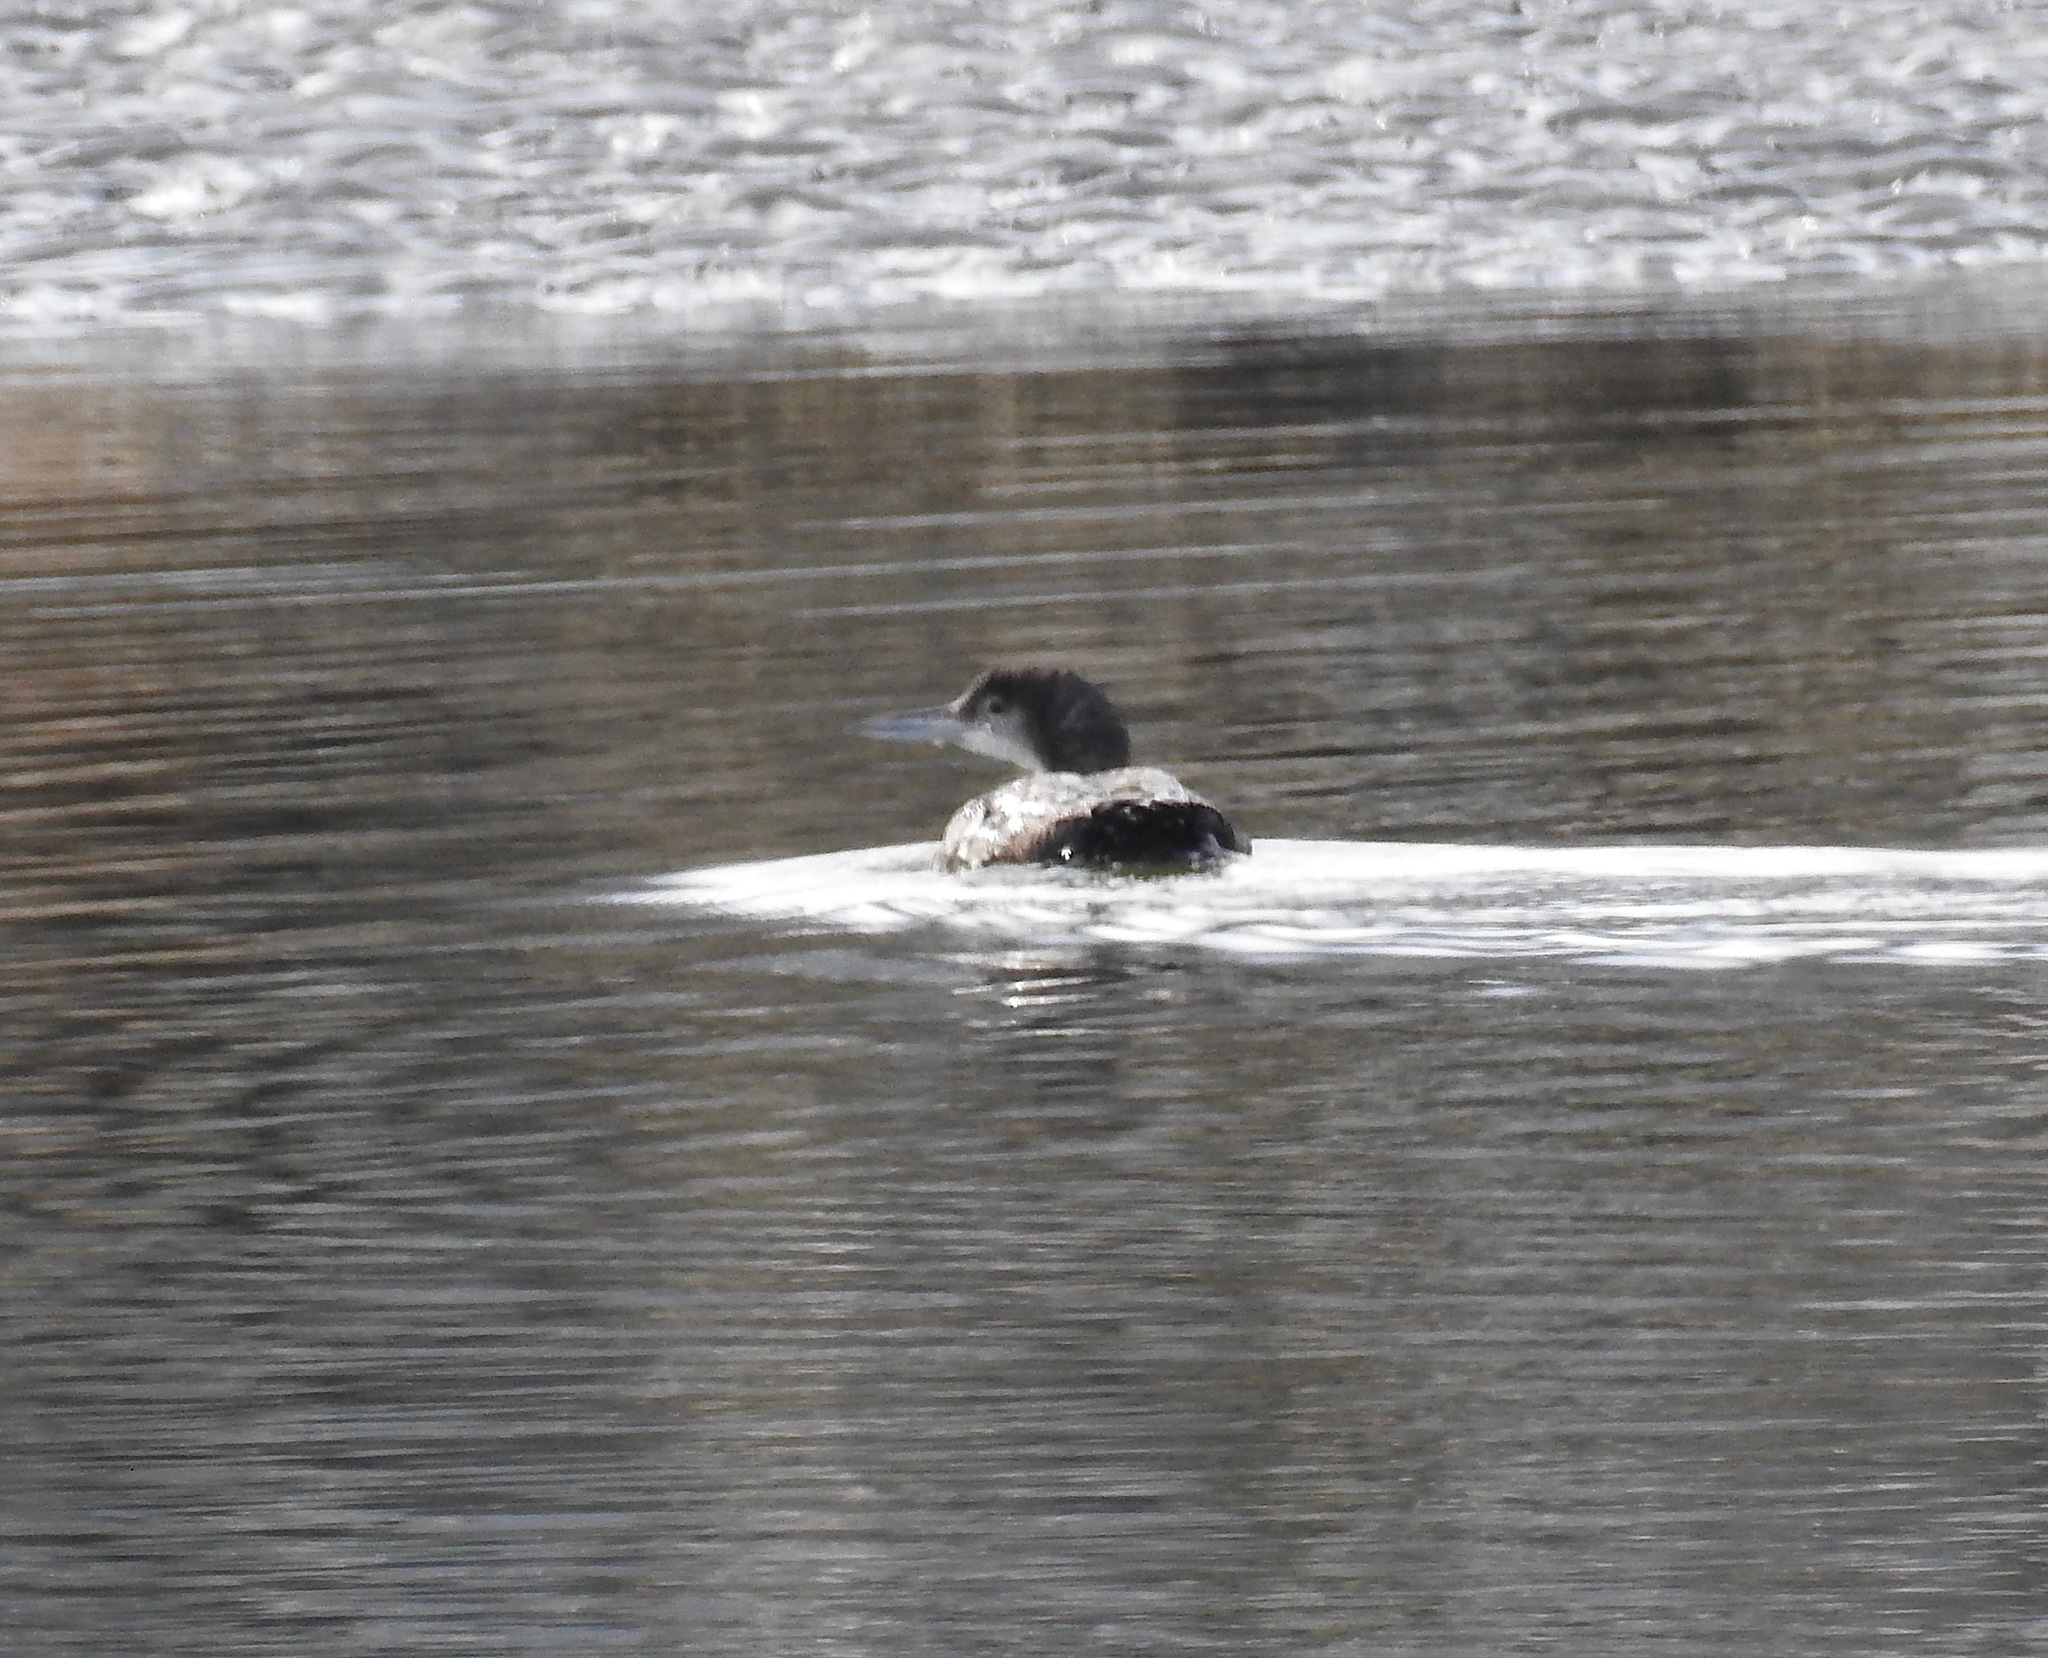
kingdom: Animalia
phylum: Chordata
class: Aves
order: Gaviiformes
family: Gaviidae
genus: Gavia
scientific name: Gavia immer
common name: Common loon
